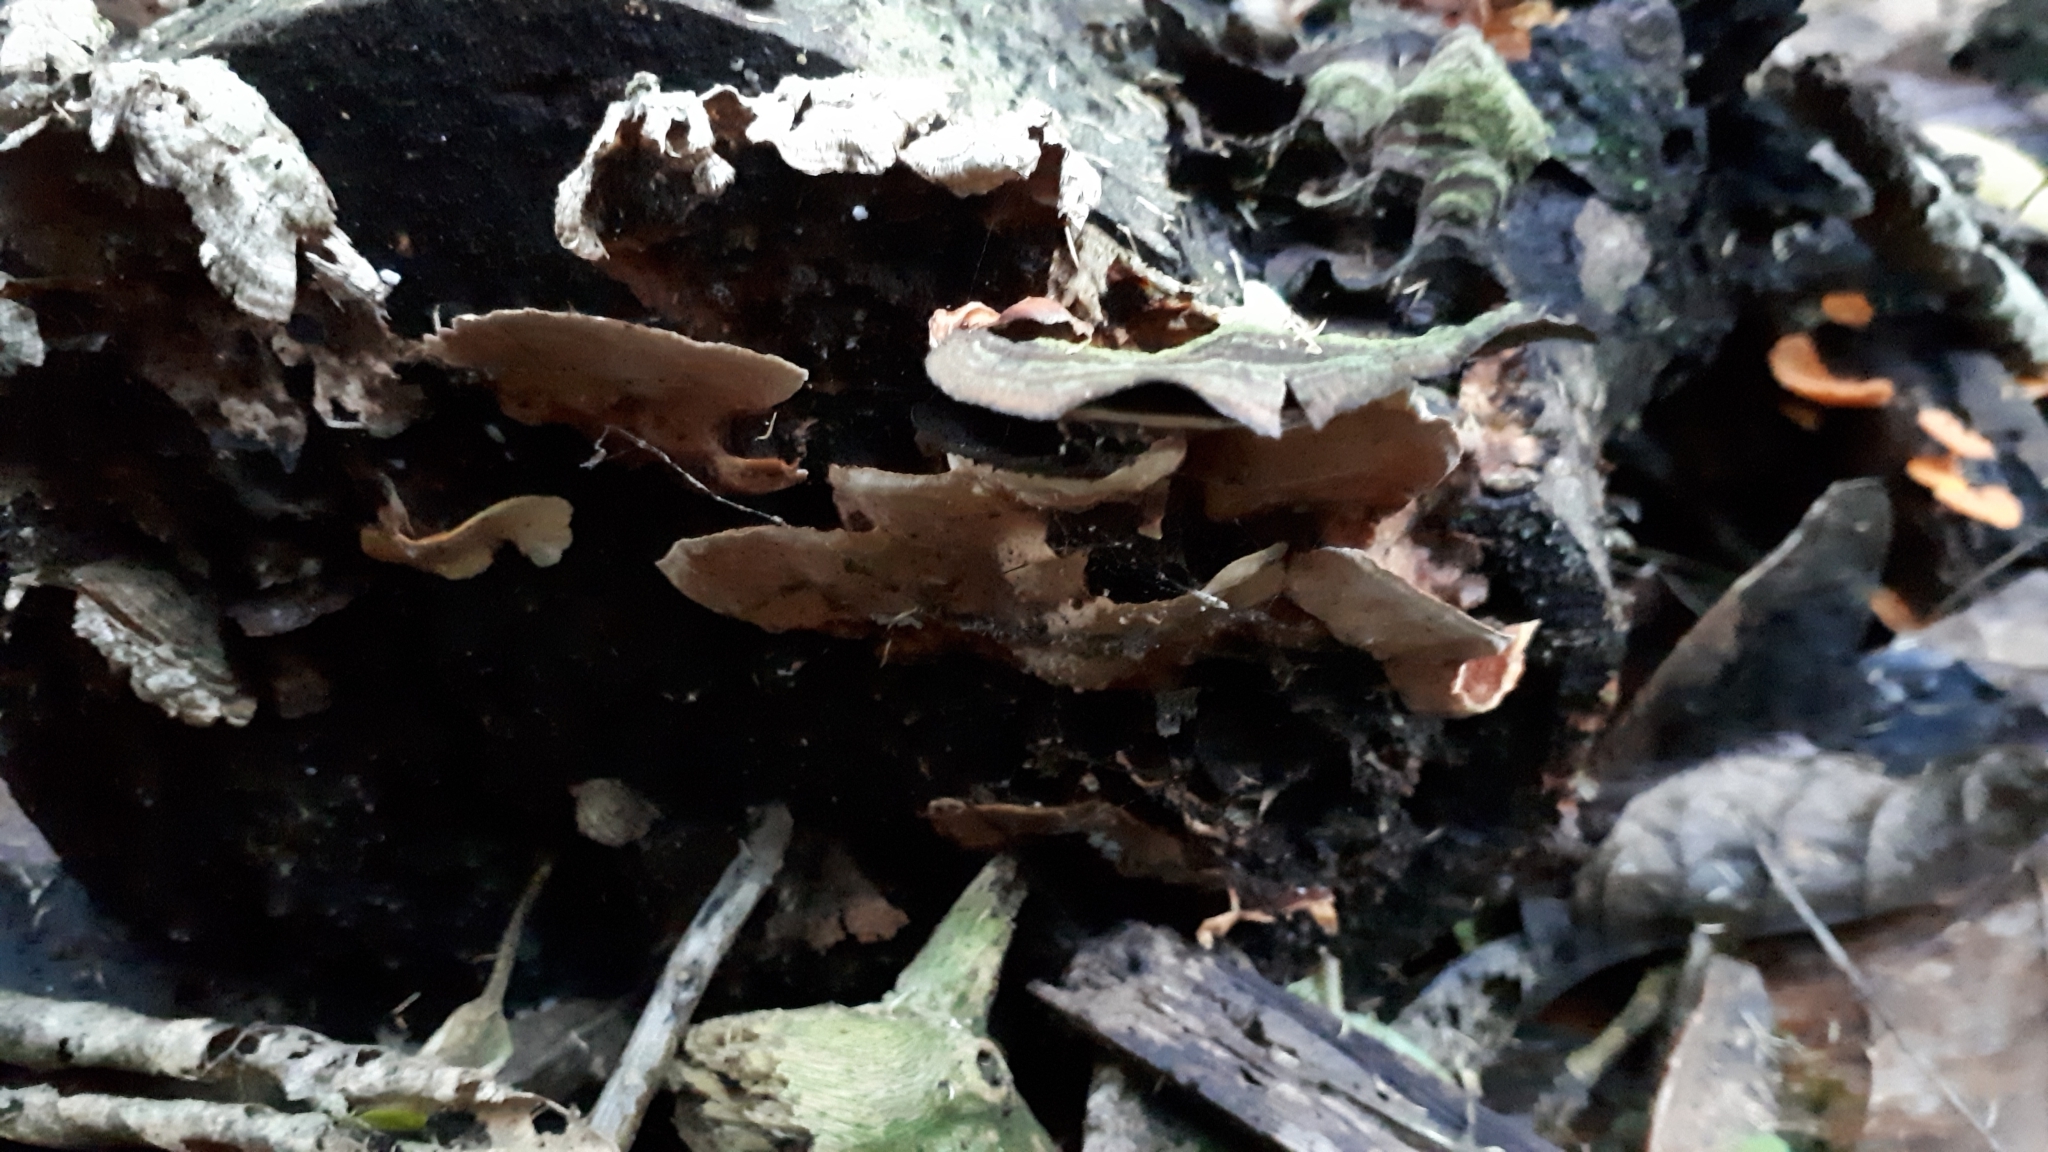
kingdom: Fungi
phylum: Basidiomycota
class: Agaricomycetes
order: Russulales
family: Stereaceae
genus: Stereum
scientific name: Stereum versicolor
